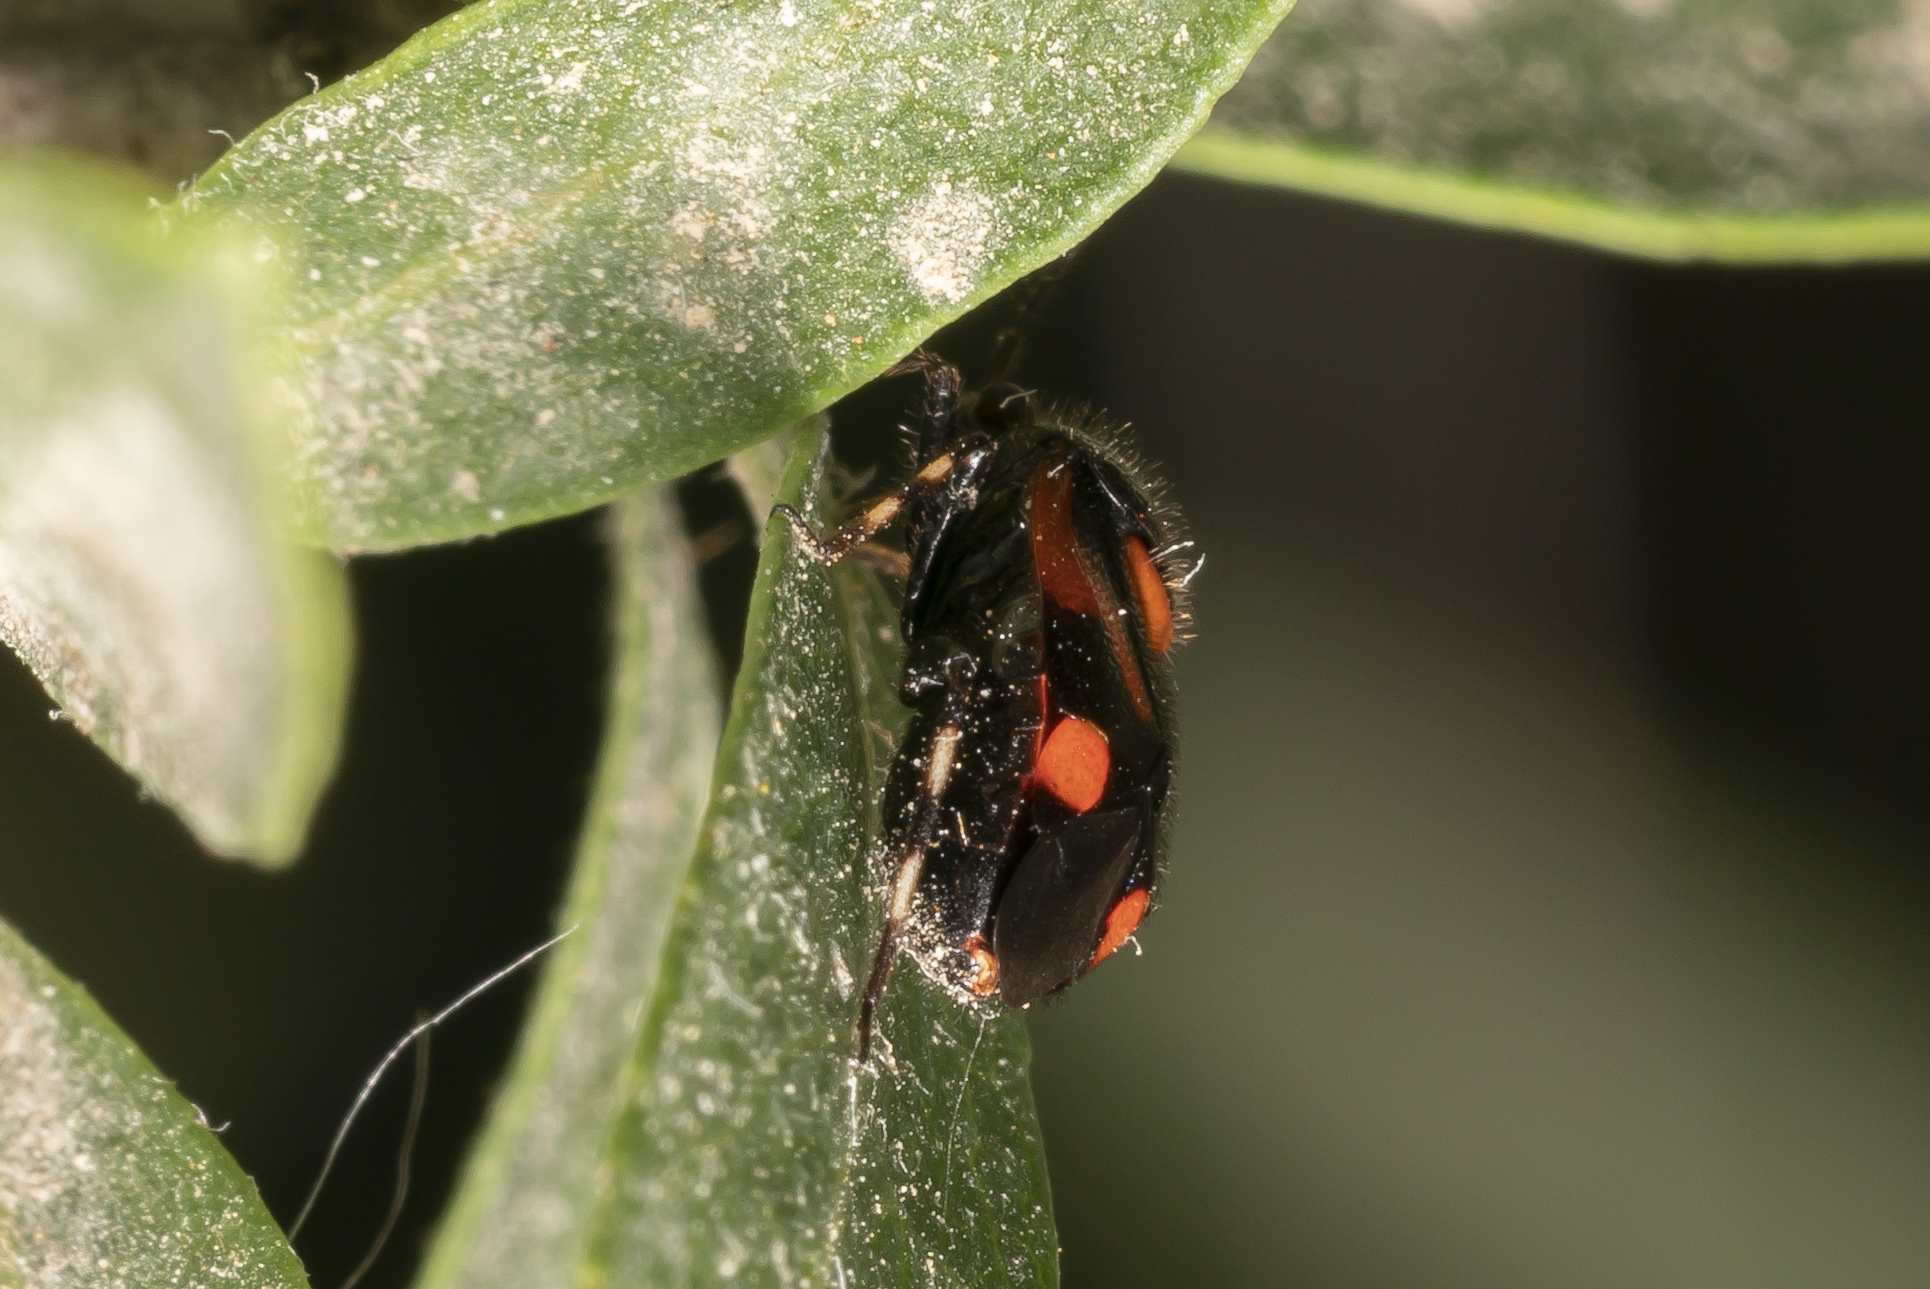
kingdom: Animalia
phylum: Arthropoda
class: Insecta
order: Hemiptera
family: Miridae
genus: Deraeocoris
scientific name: Deraeocoris schach
